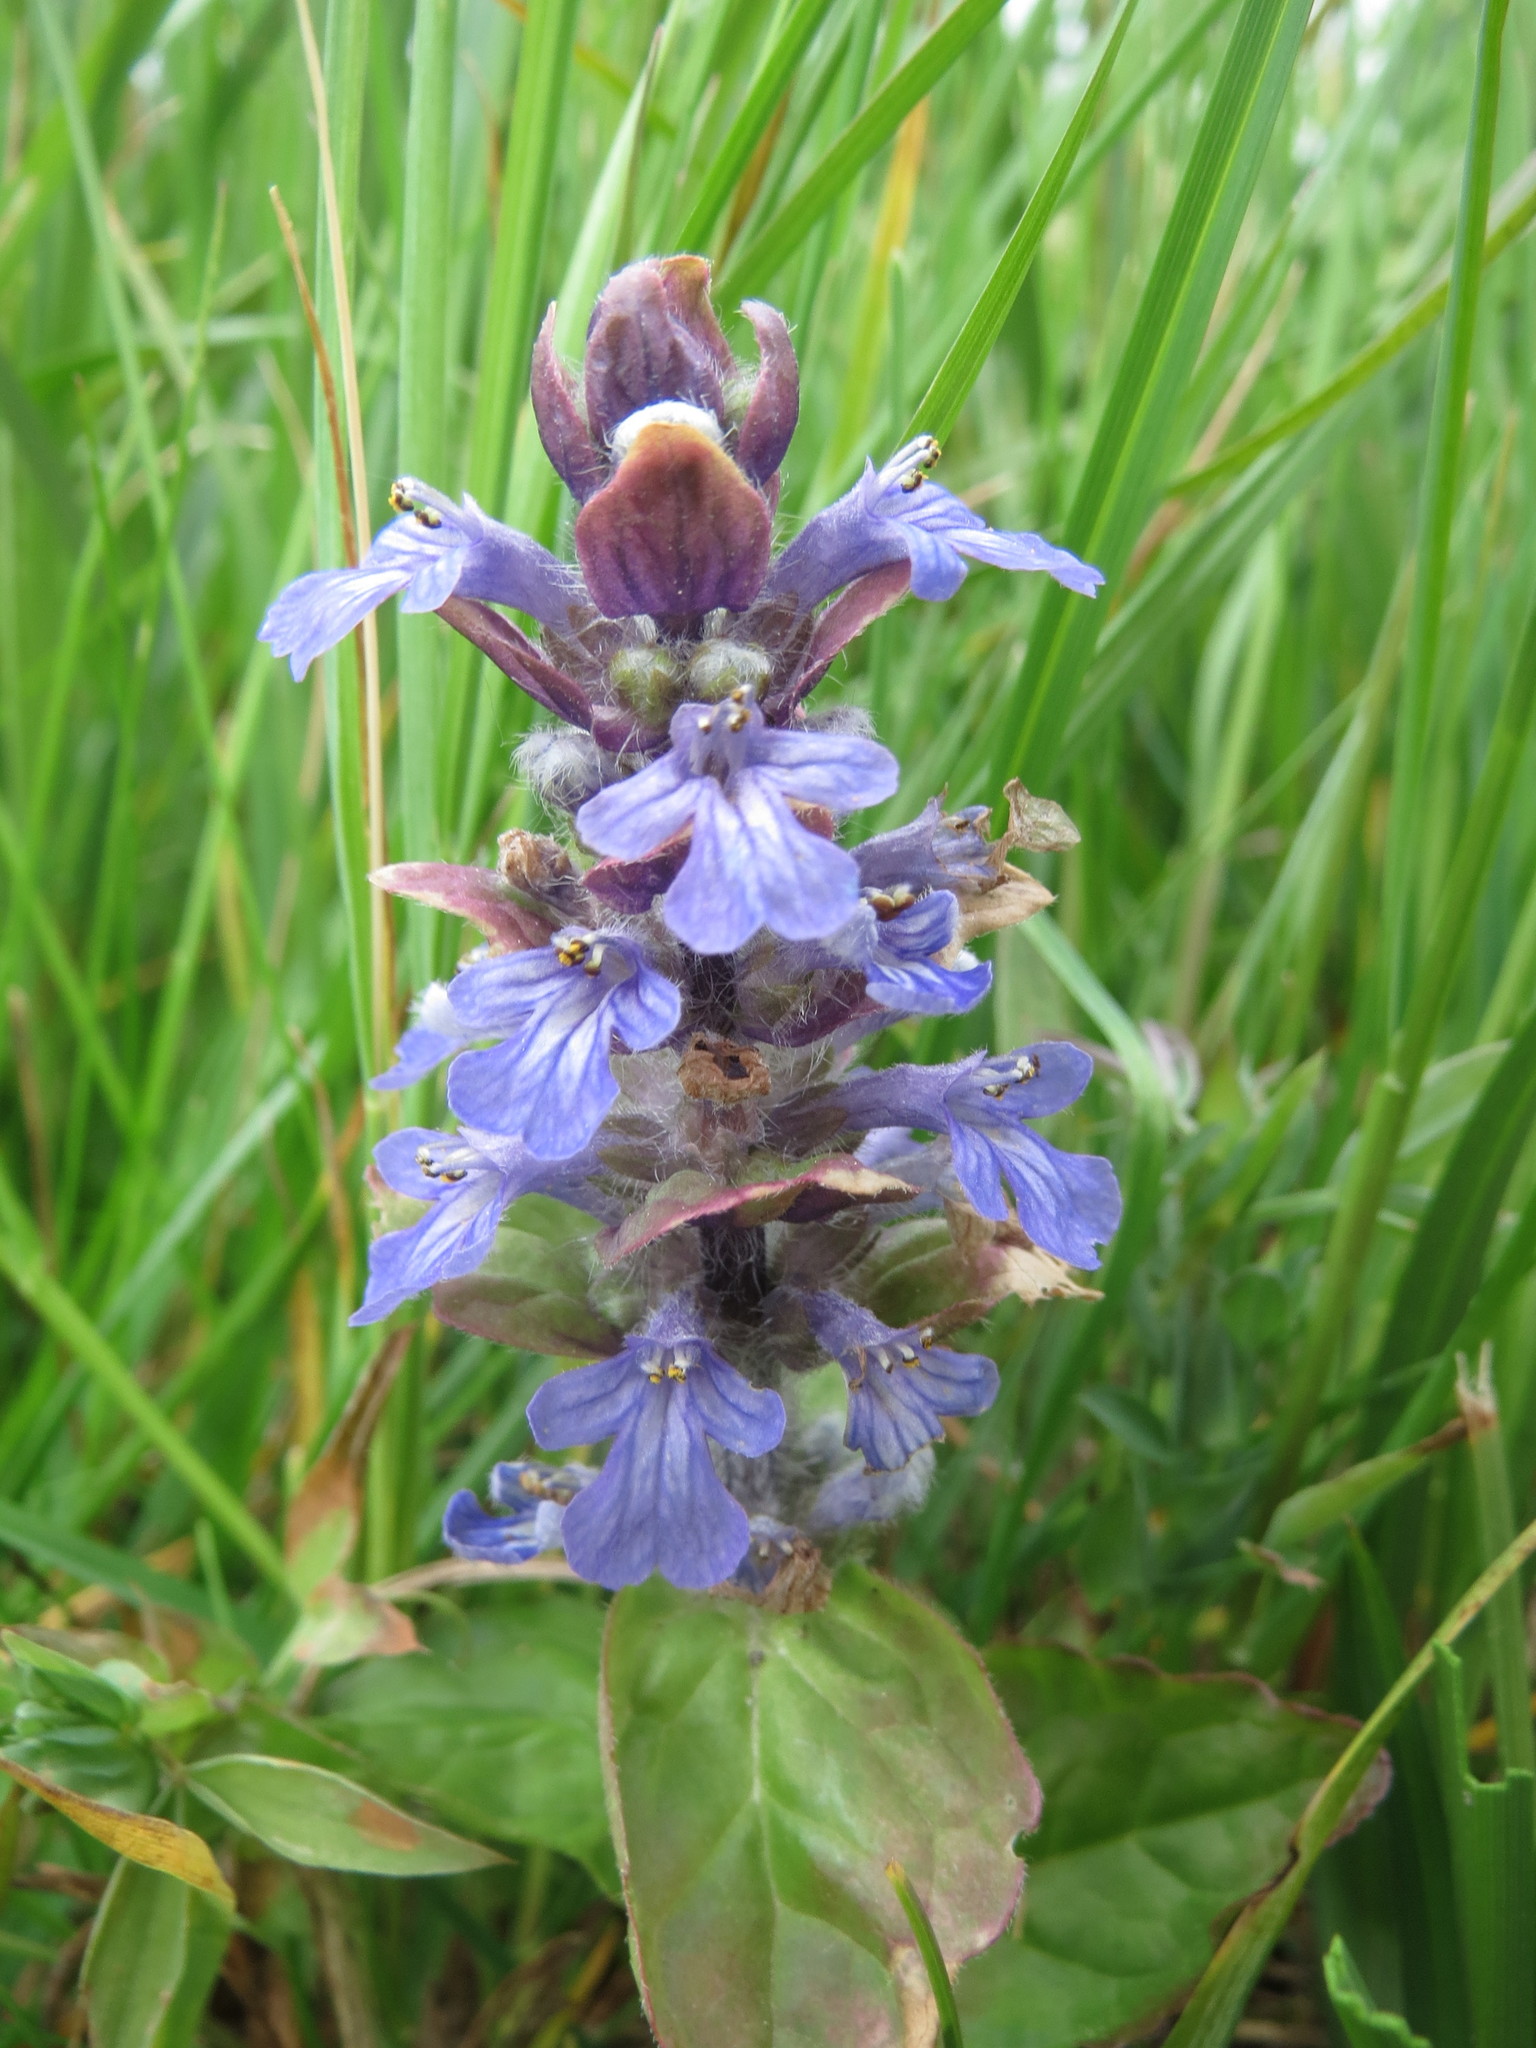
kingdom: Plantae
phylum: Tracheophyta
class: Magnoliopsida
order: Lamiales
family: Lamiaceae
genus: Ajuga
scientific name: Ajuga reptans
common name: Bugle
